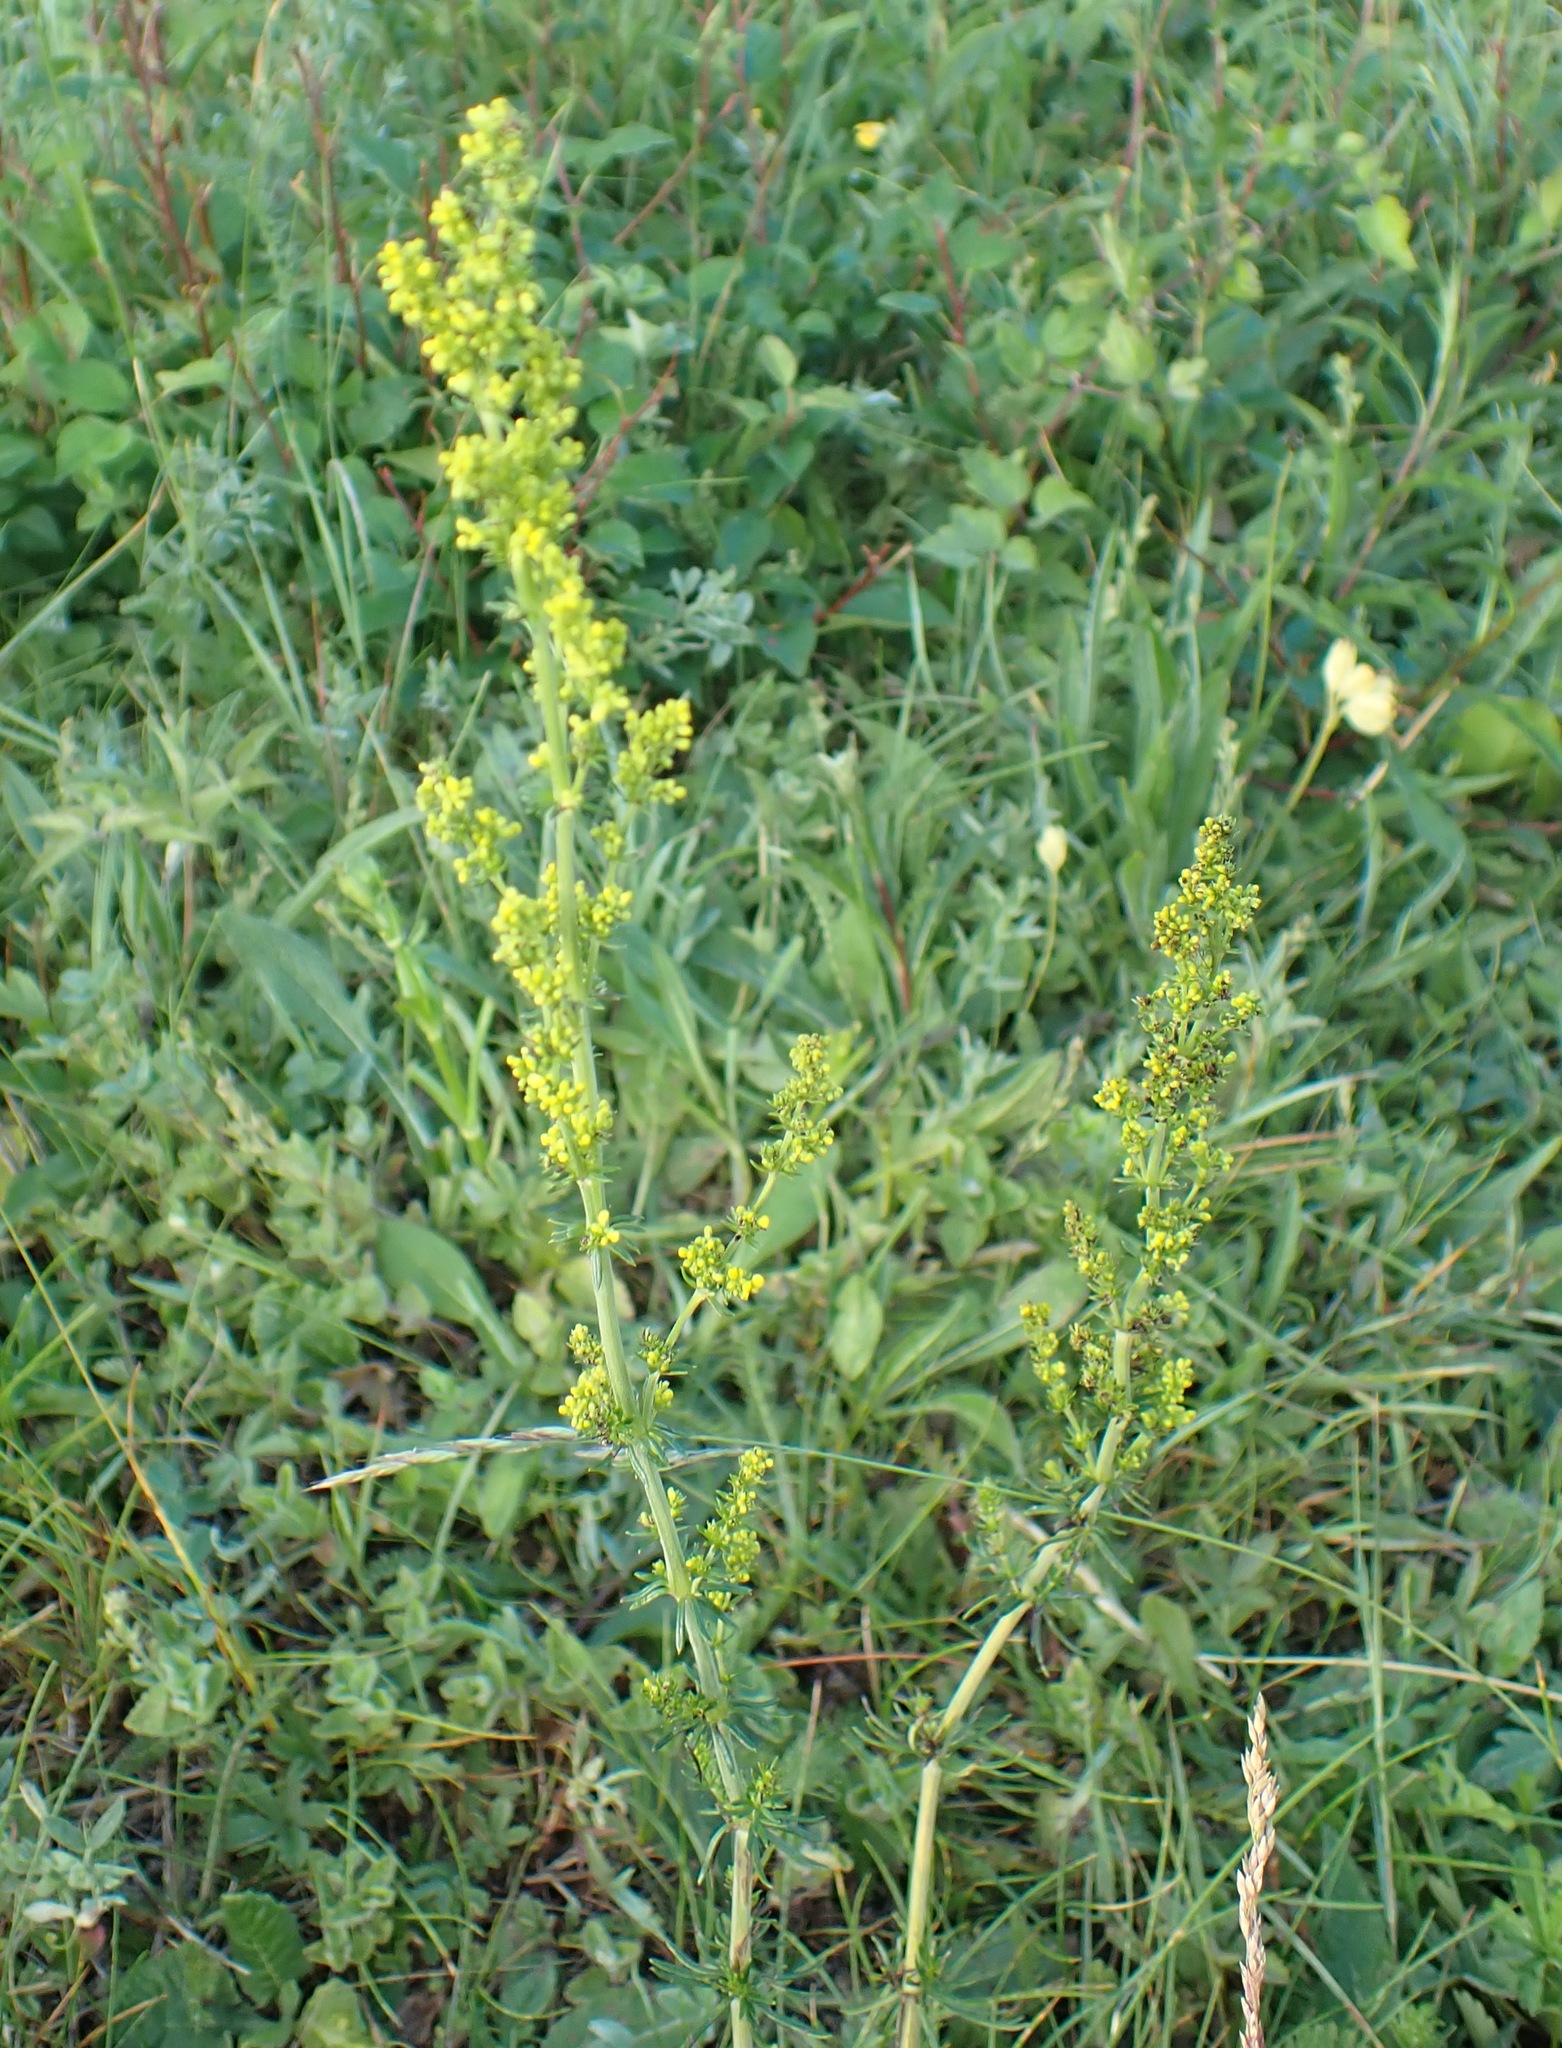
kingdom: Plantae
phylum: Tracheophyta
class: Magnoliopsida
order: Gentianales
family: Rubiaceae
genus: Galium
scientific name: Galium verum
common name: Lady's bedstraw
